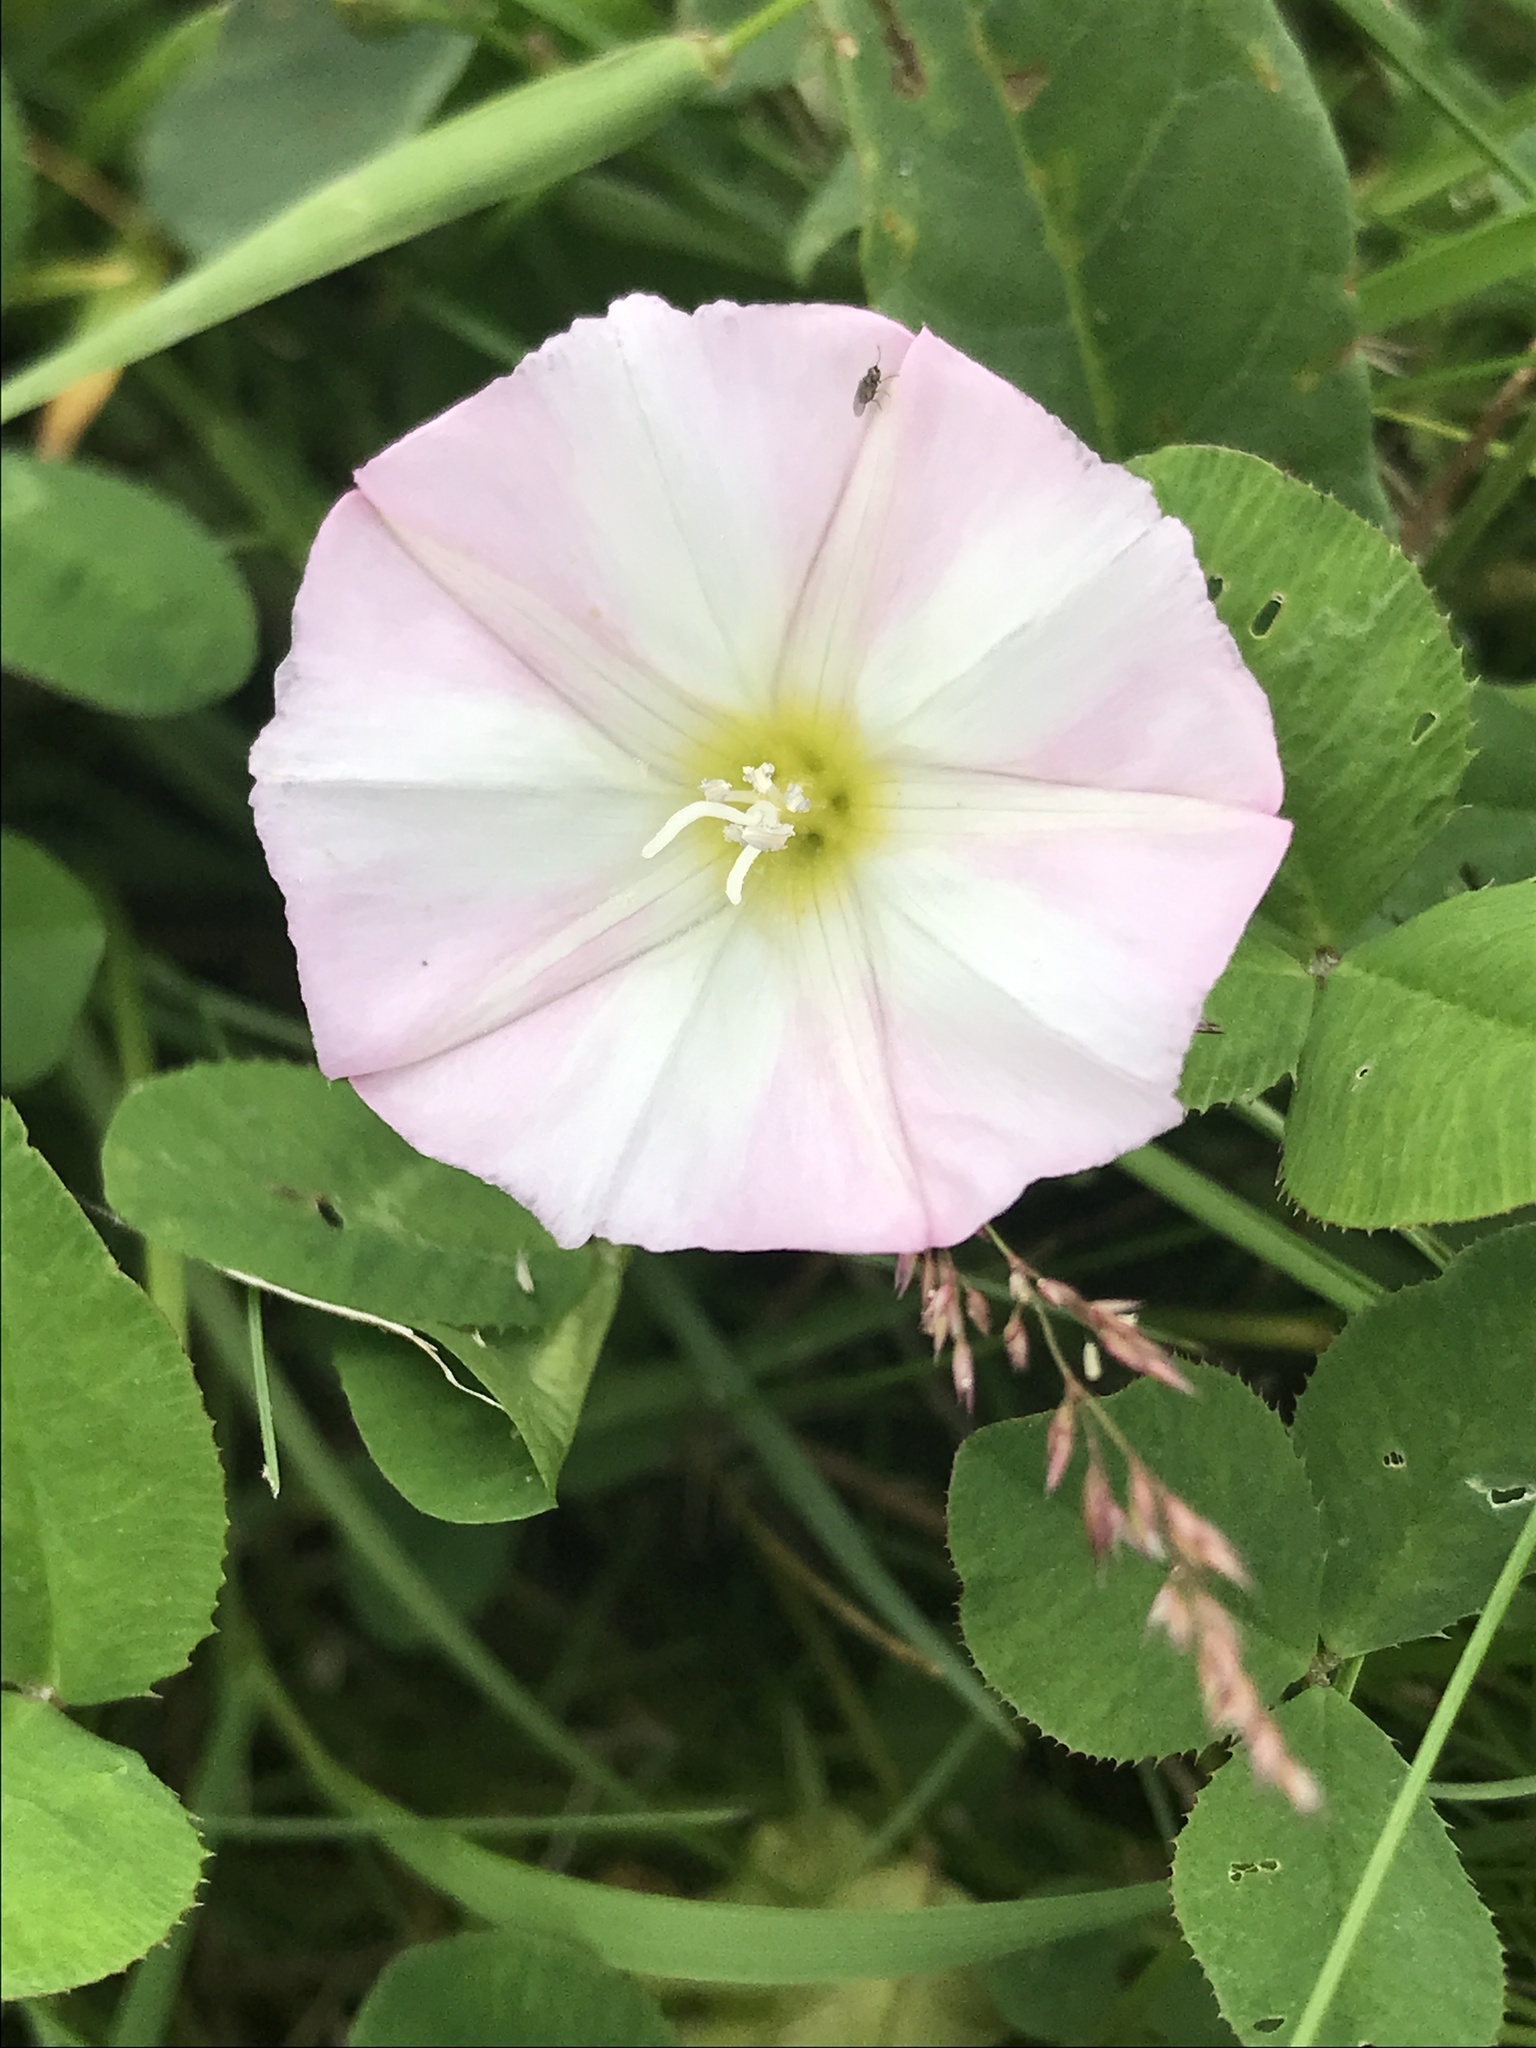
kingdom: Plantae
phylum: Tracheophyta
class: Magnoliopsida
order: Solanales
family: Convolvulaceae
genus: Convolvulus
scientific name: Convolvulus arvensis
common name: Field bindweed
